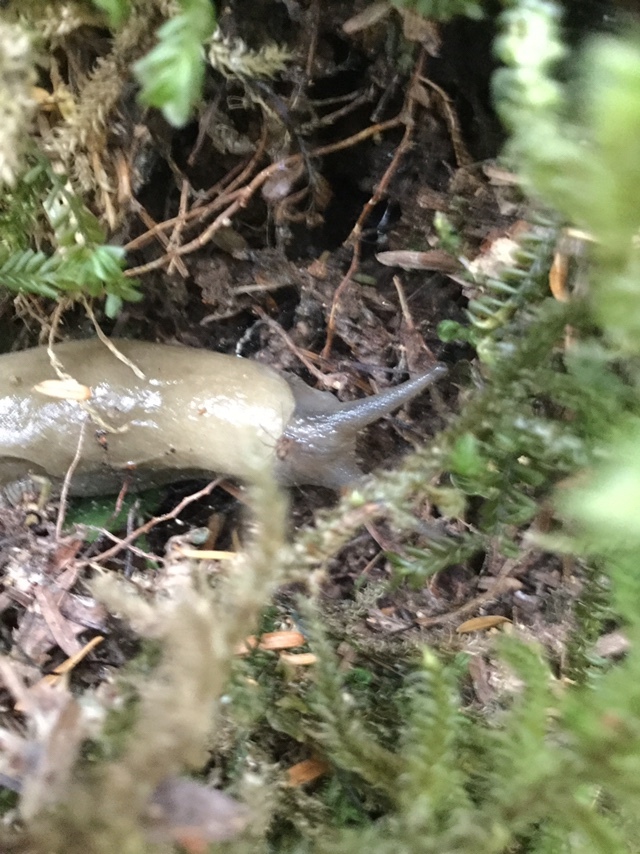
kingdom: Animalia
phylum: Mollusca
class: Gastropoda
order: Stylommatophora
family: Ariolimacidae
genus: Ariolimax
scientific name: Ariolimax columbianus
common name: Pacific banana slug
